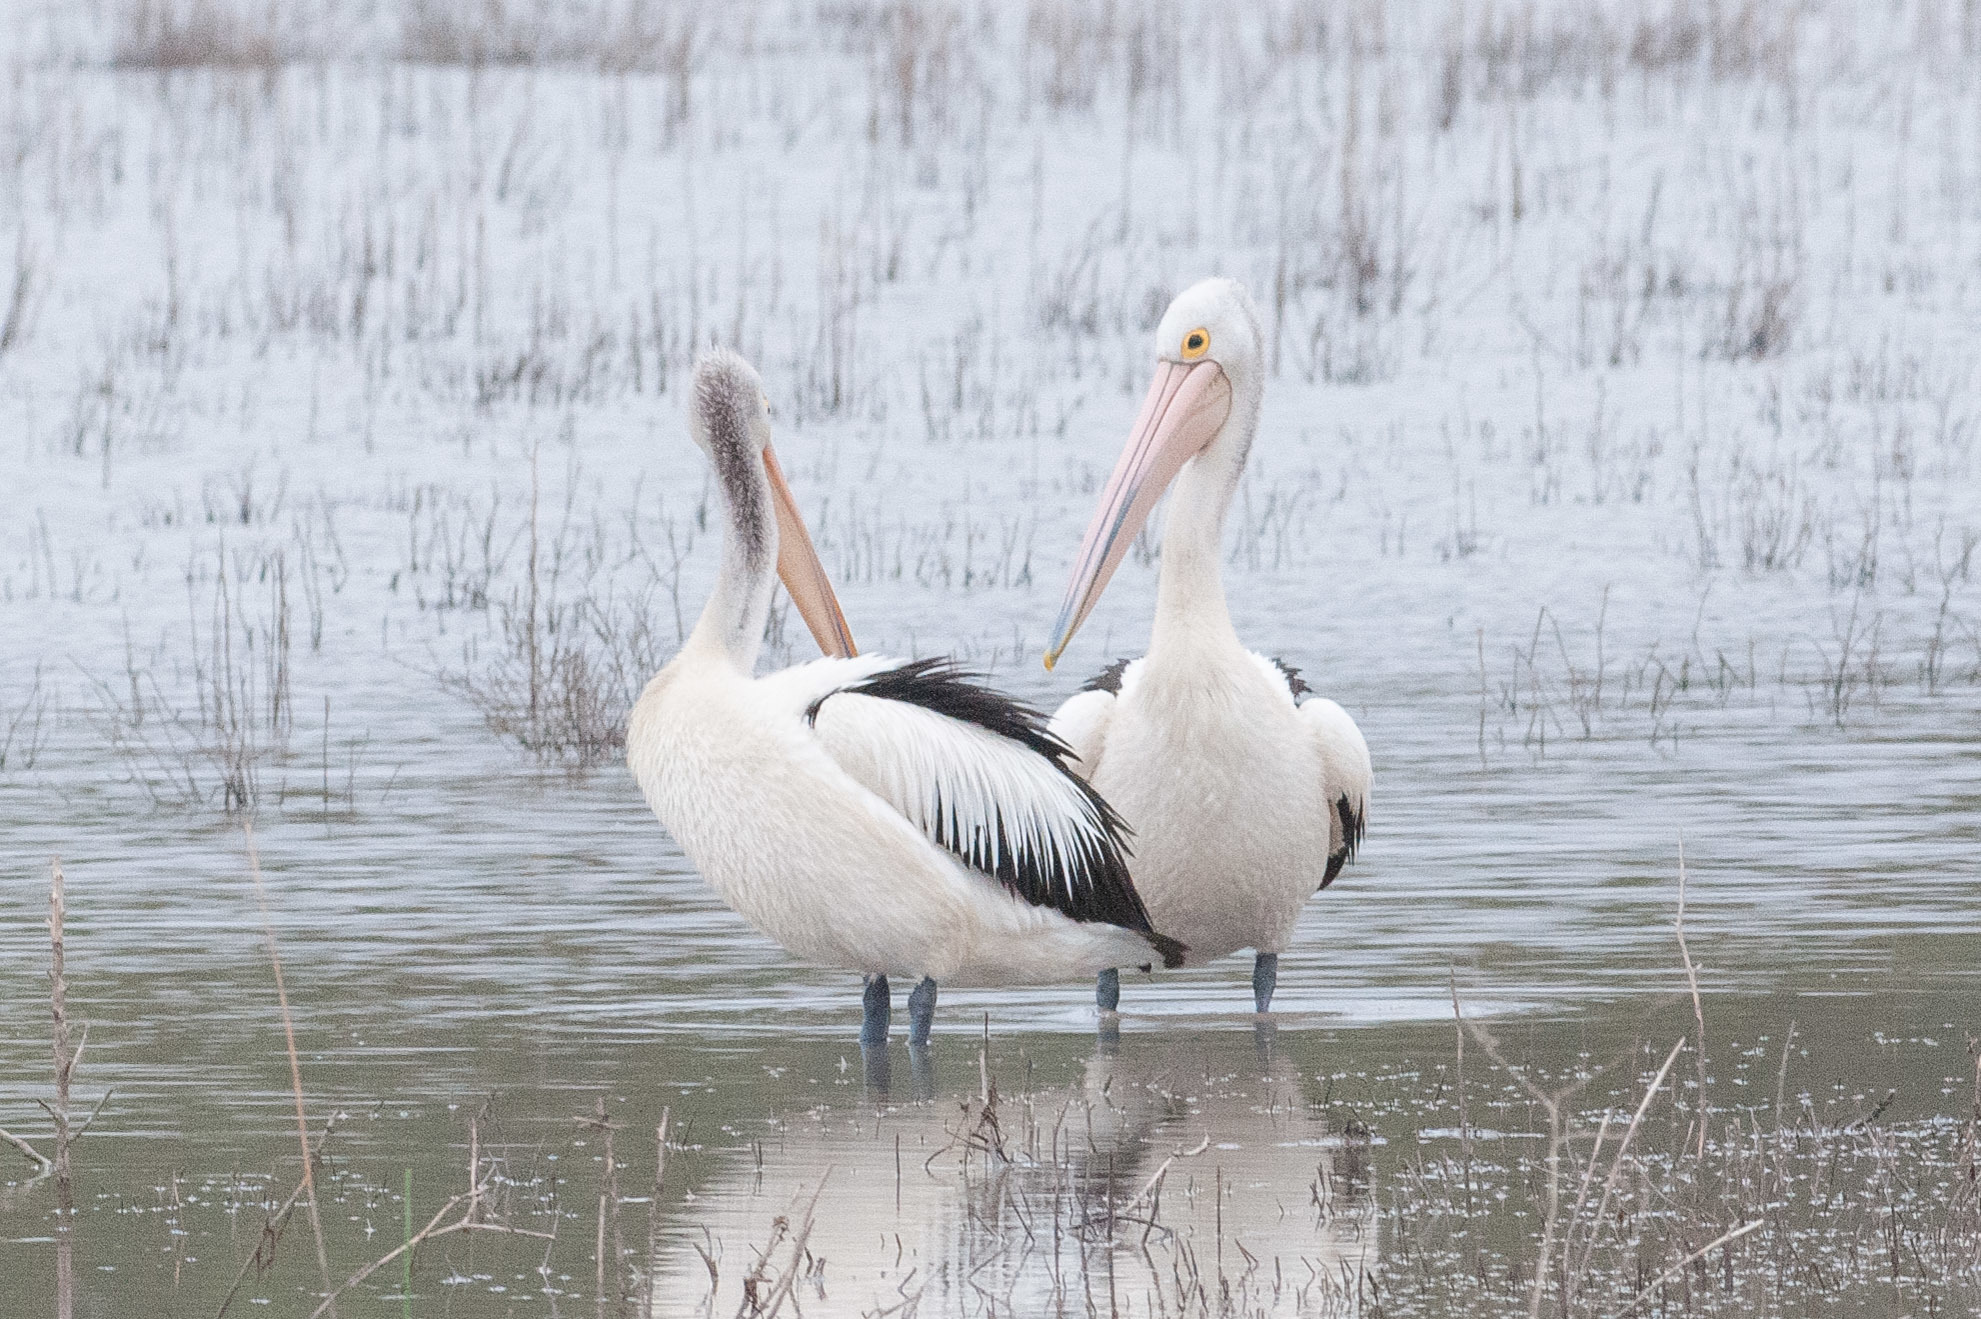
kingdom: Animalia
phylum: Chordata
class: Aves
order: Pelecaniformes
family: Pelecanidae
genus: Pelecanus
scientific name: Pelecanus conspicillatus
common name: Australian pelican
